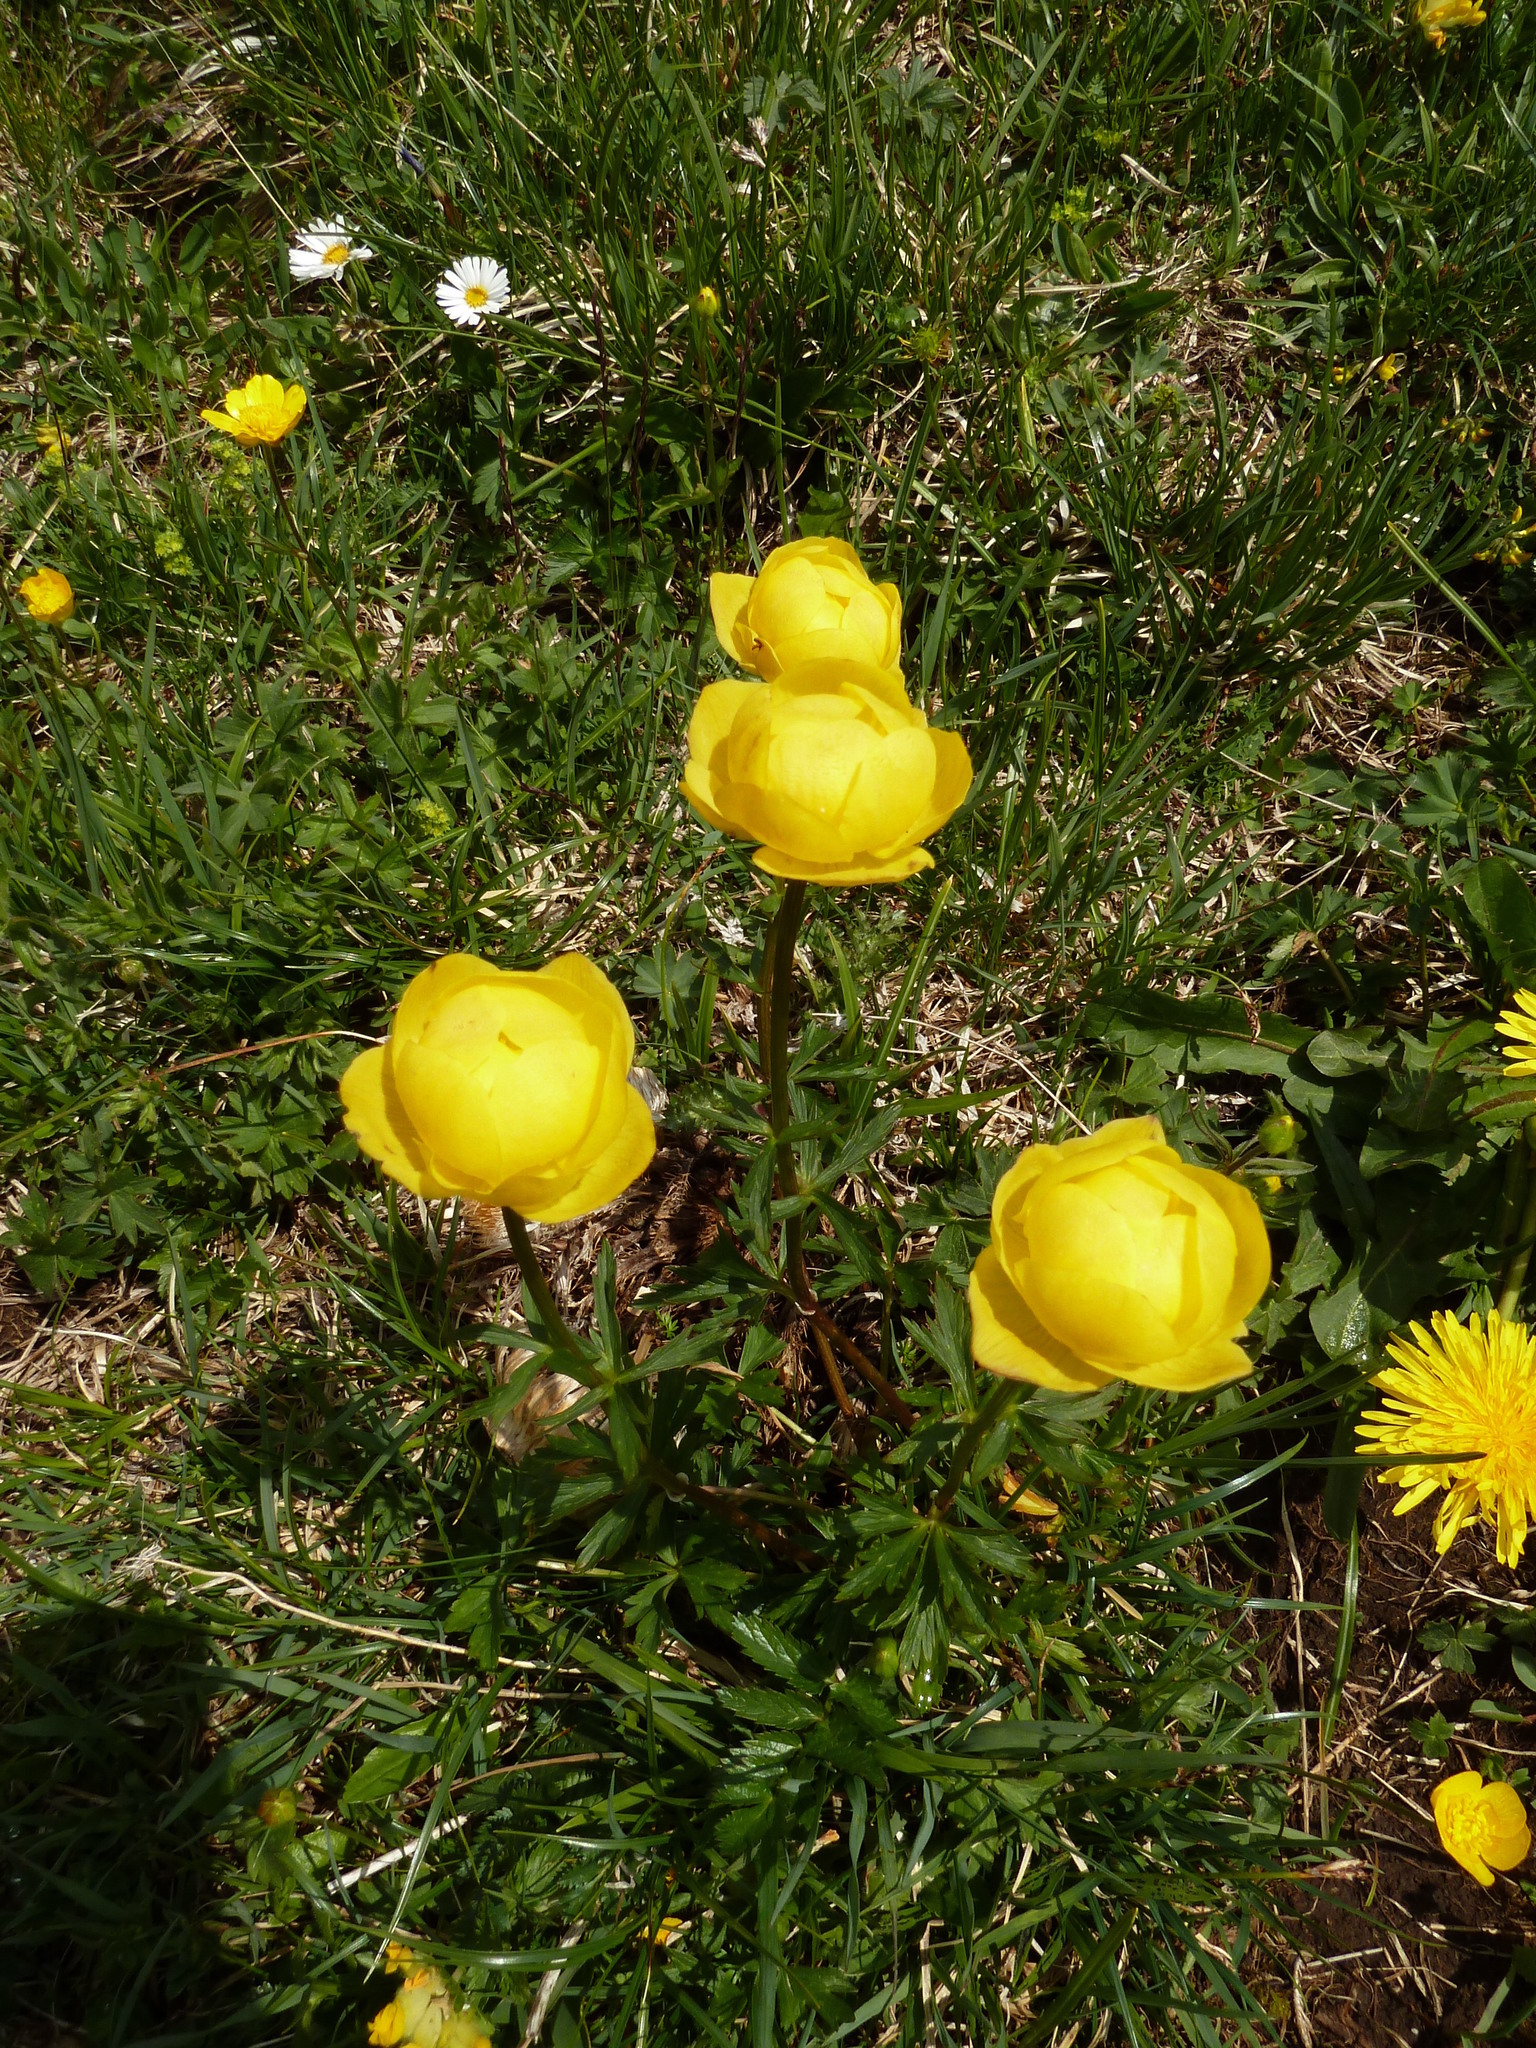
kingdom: Plantae
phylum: Tracheophyta
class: Magnoliopsida
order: Ranunculales
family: Ranunculaceae
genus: Trollius
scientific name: Trollius europaeus
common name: European globeflower
